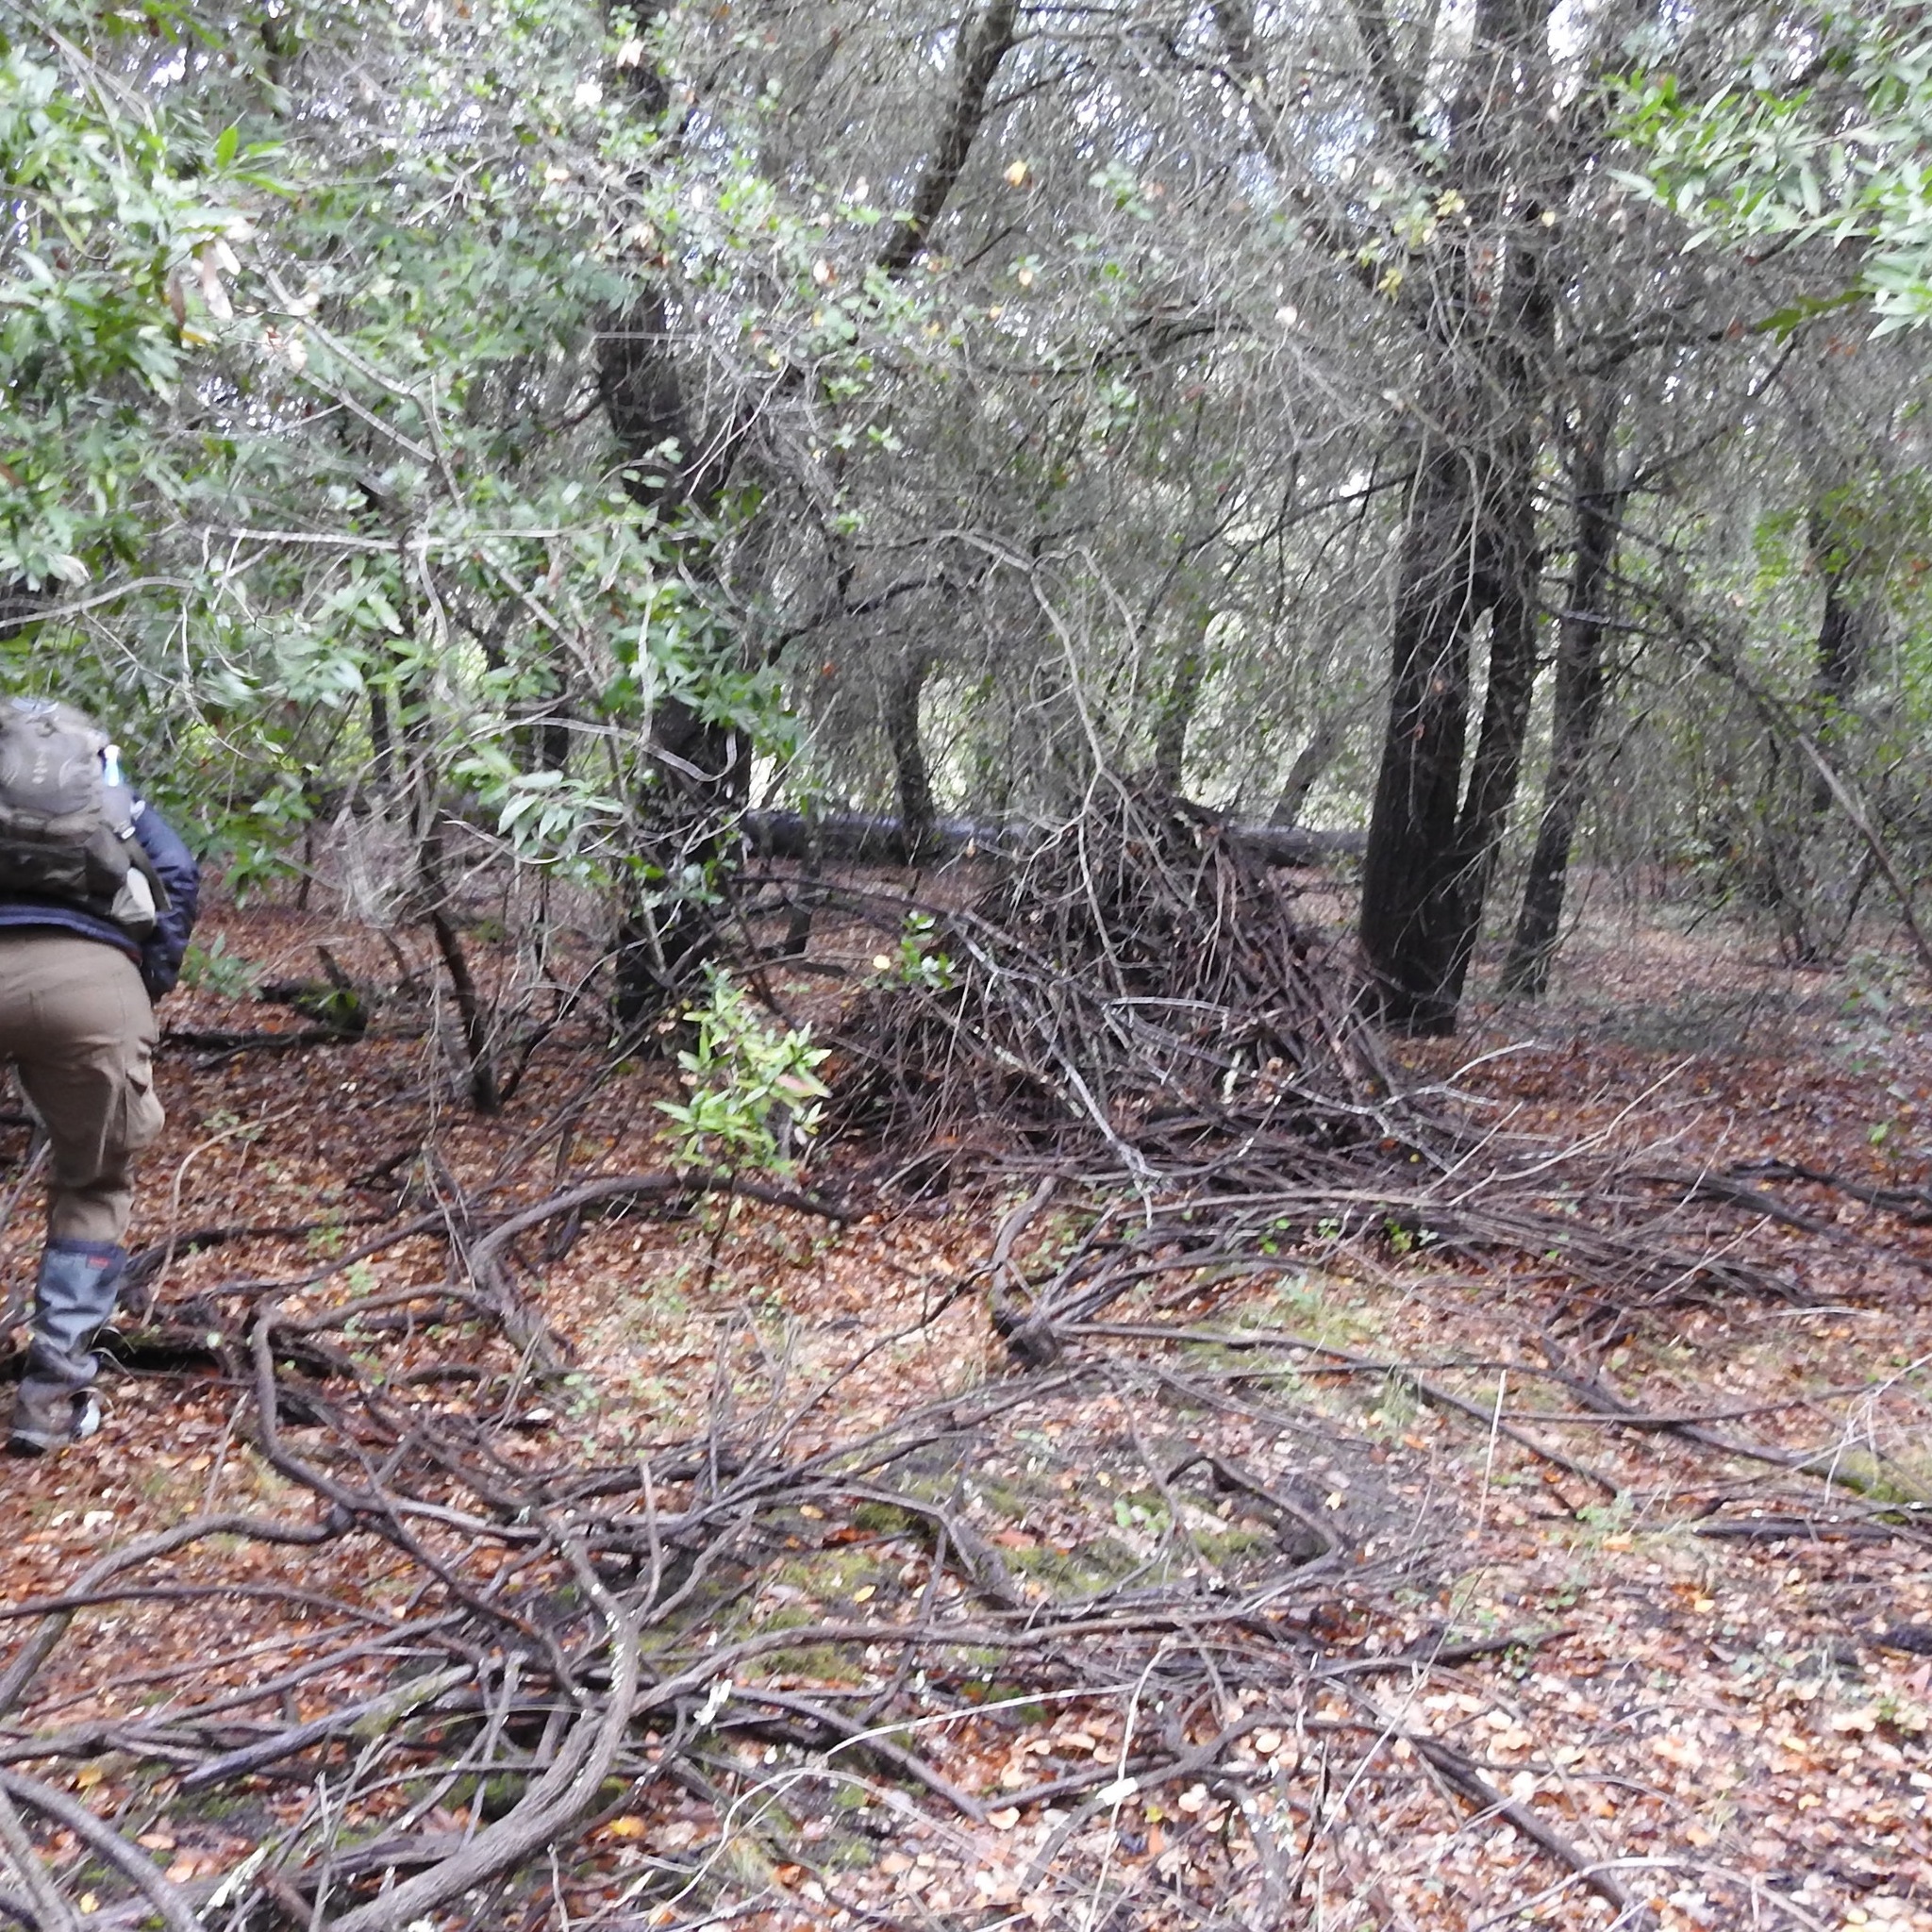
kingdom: Animalia
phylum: Chordata
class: Mammalia
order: Rodentia
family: Cricetidae
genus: Neotoma
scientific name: Neotoma fuscipes
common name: Dusky-footed woodrat
